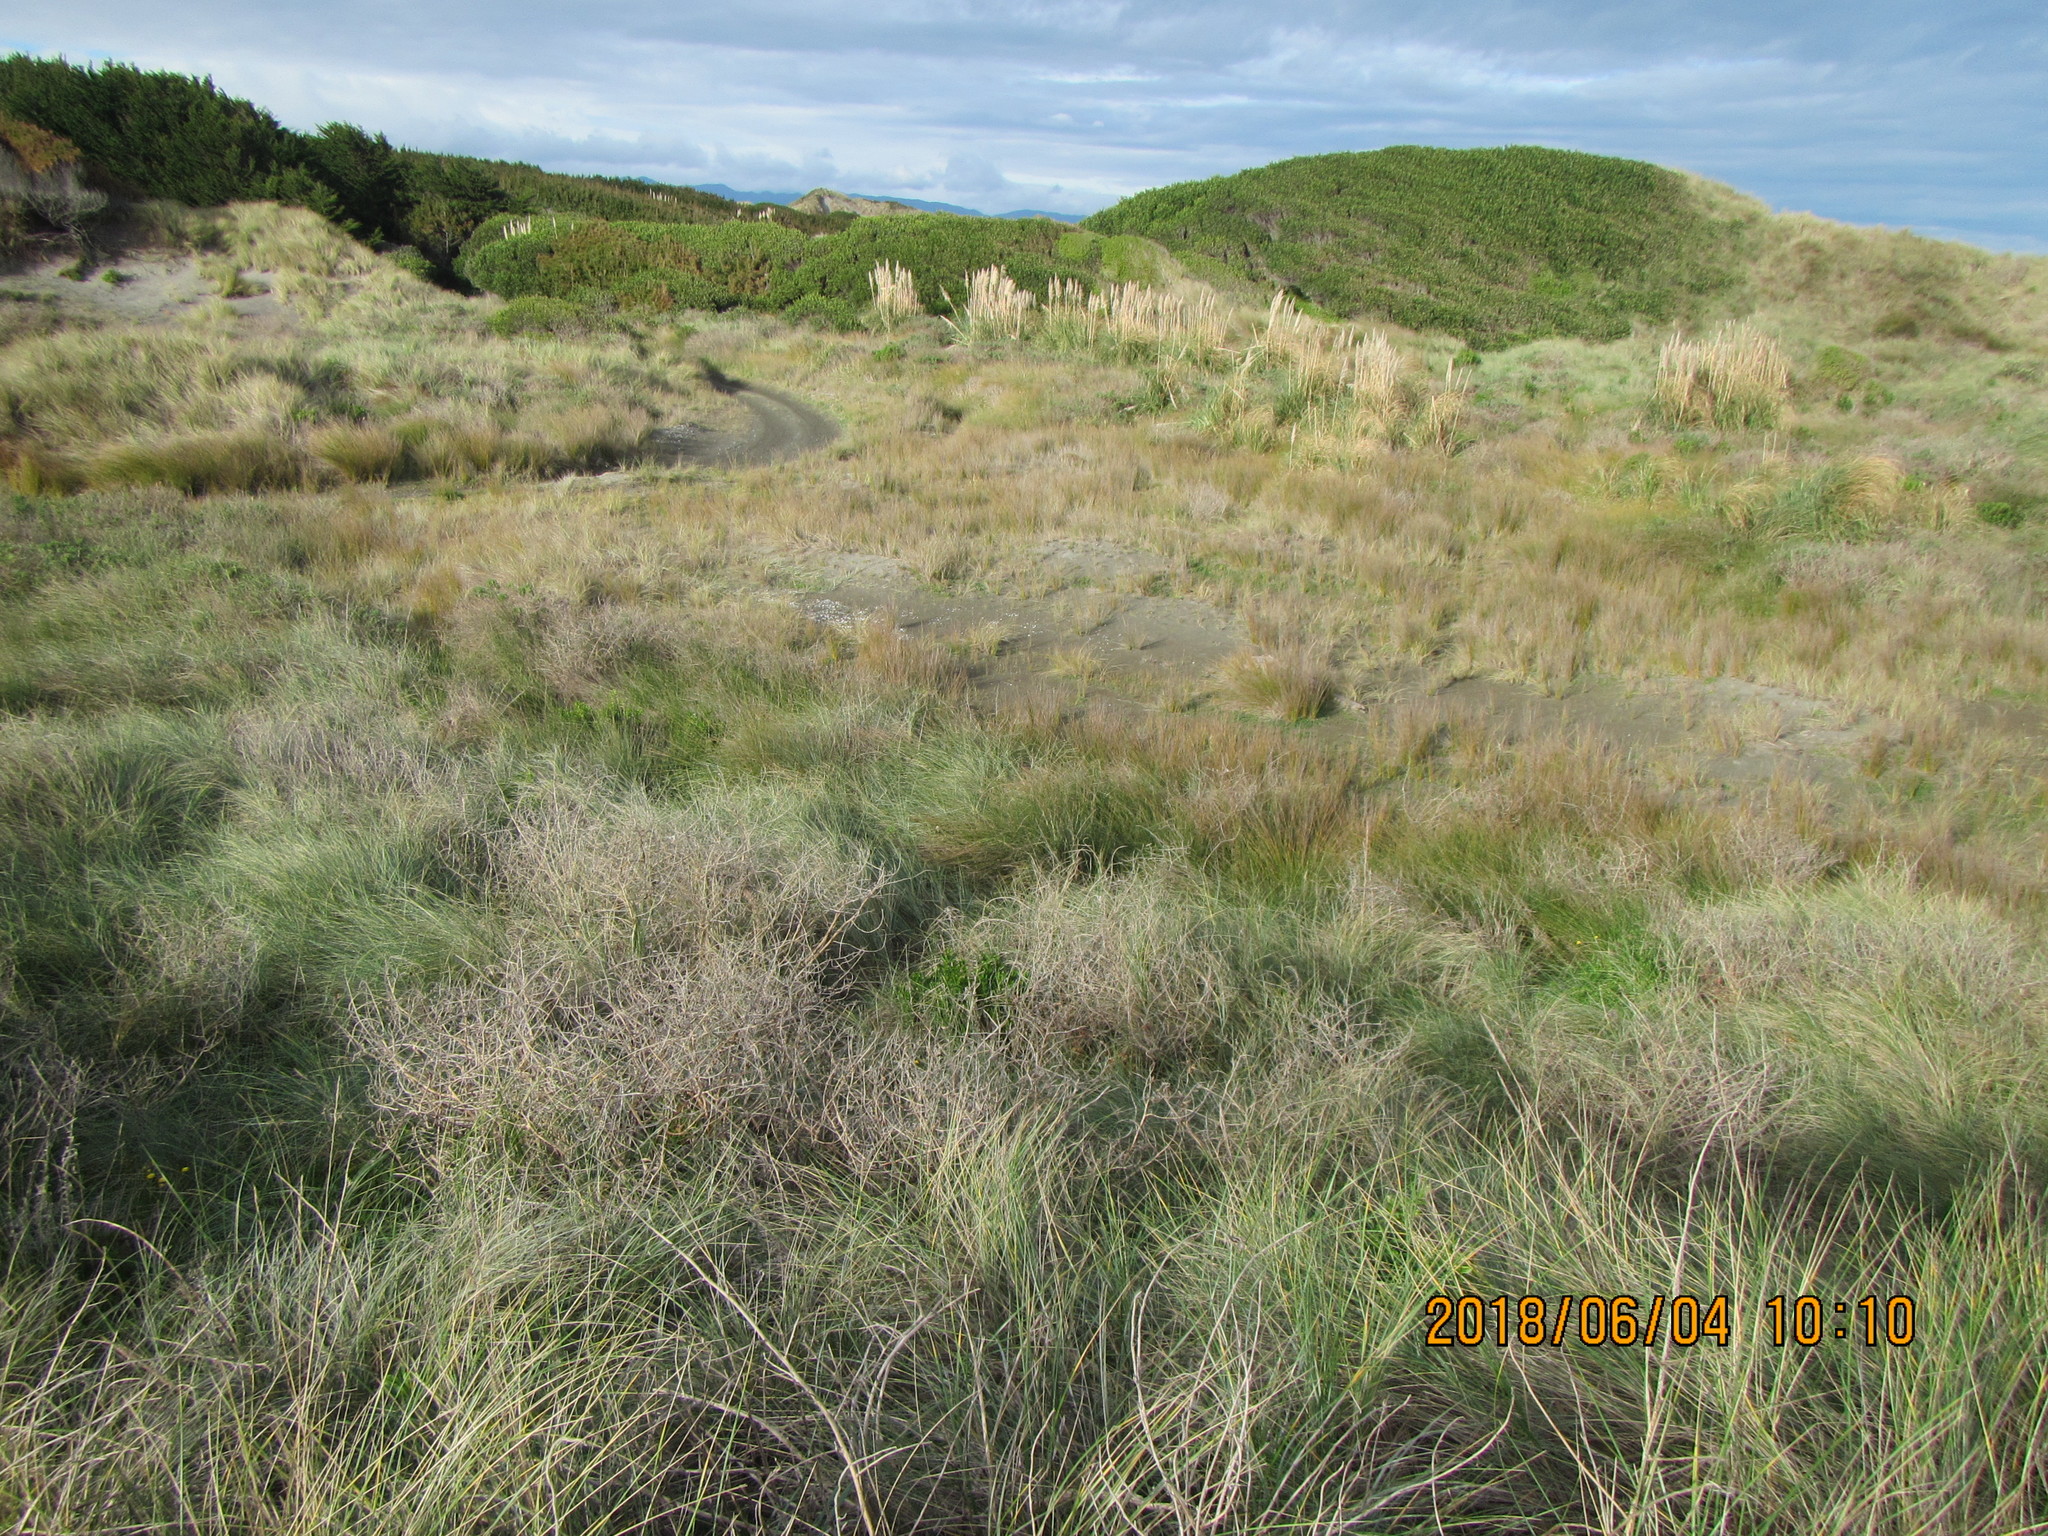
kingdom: Plantae
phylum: Tracheophyta
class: Magnoliopsida
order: Asterales
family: Goodeniaceae
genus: Goodenia
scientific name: Goodenia heenanii
